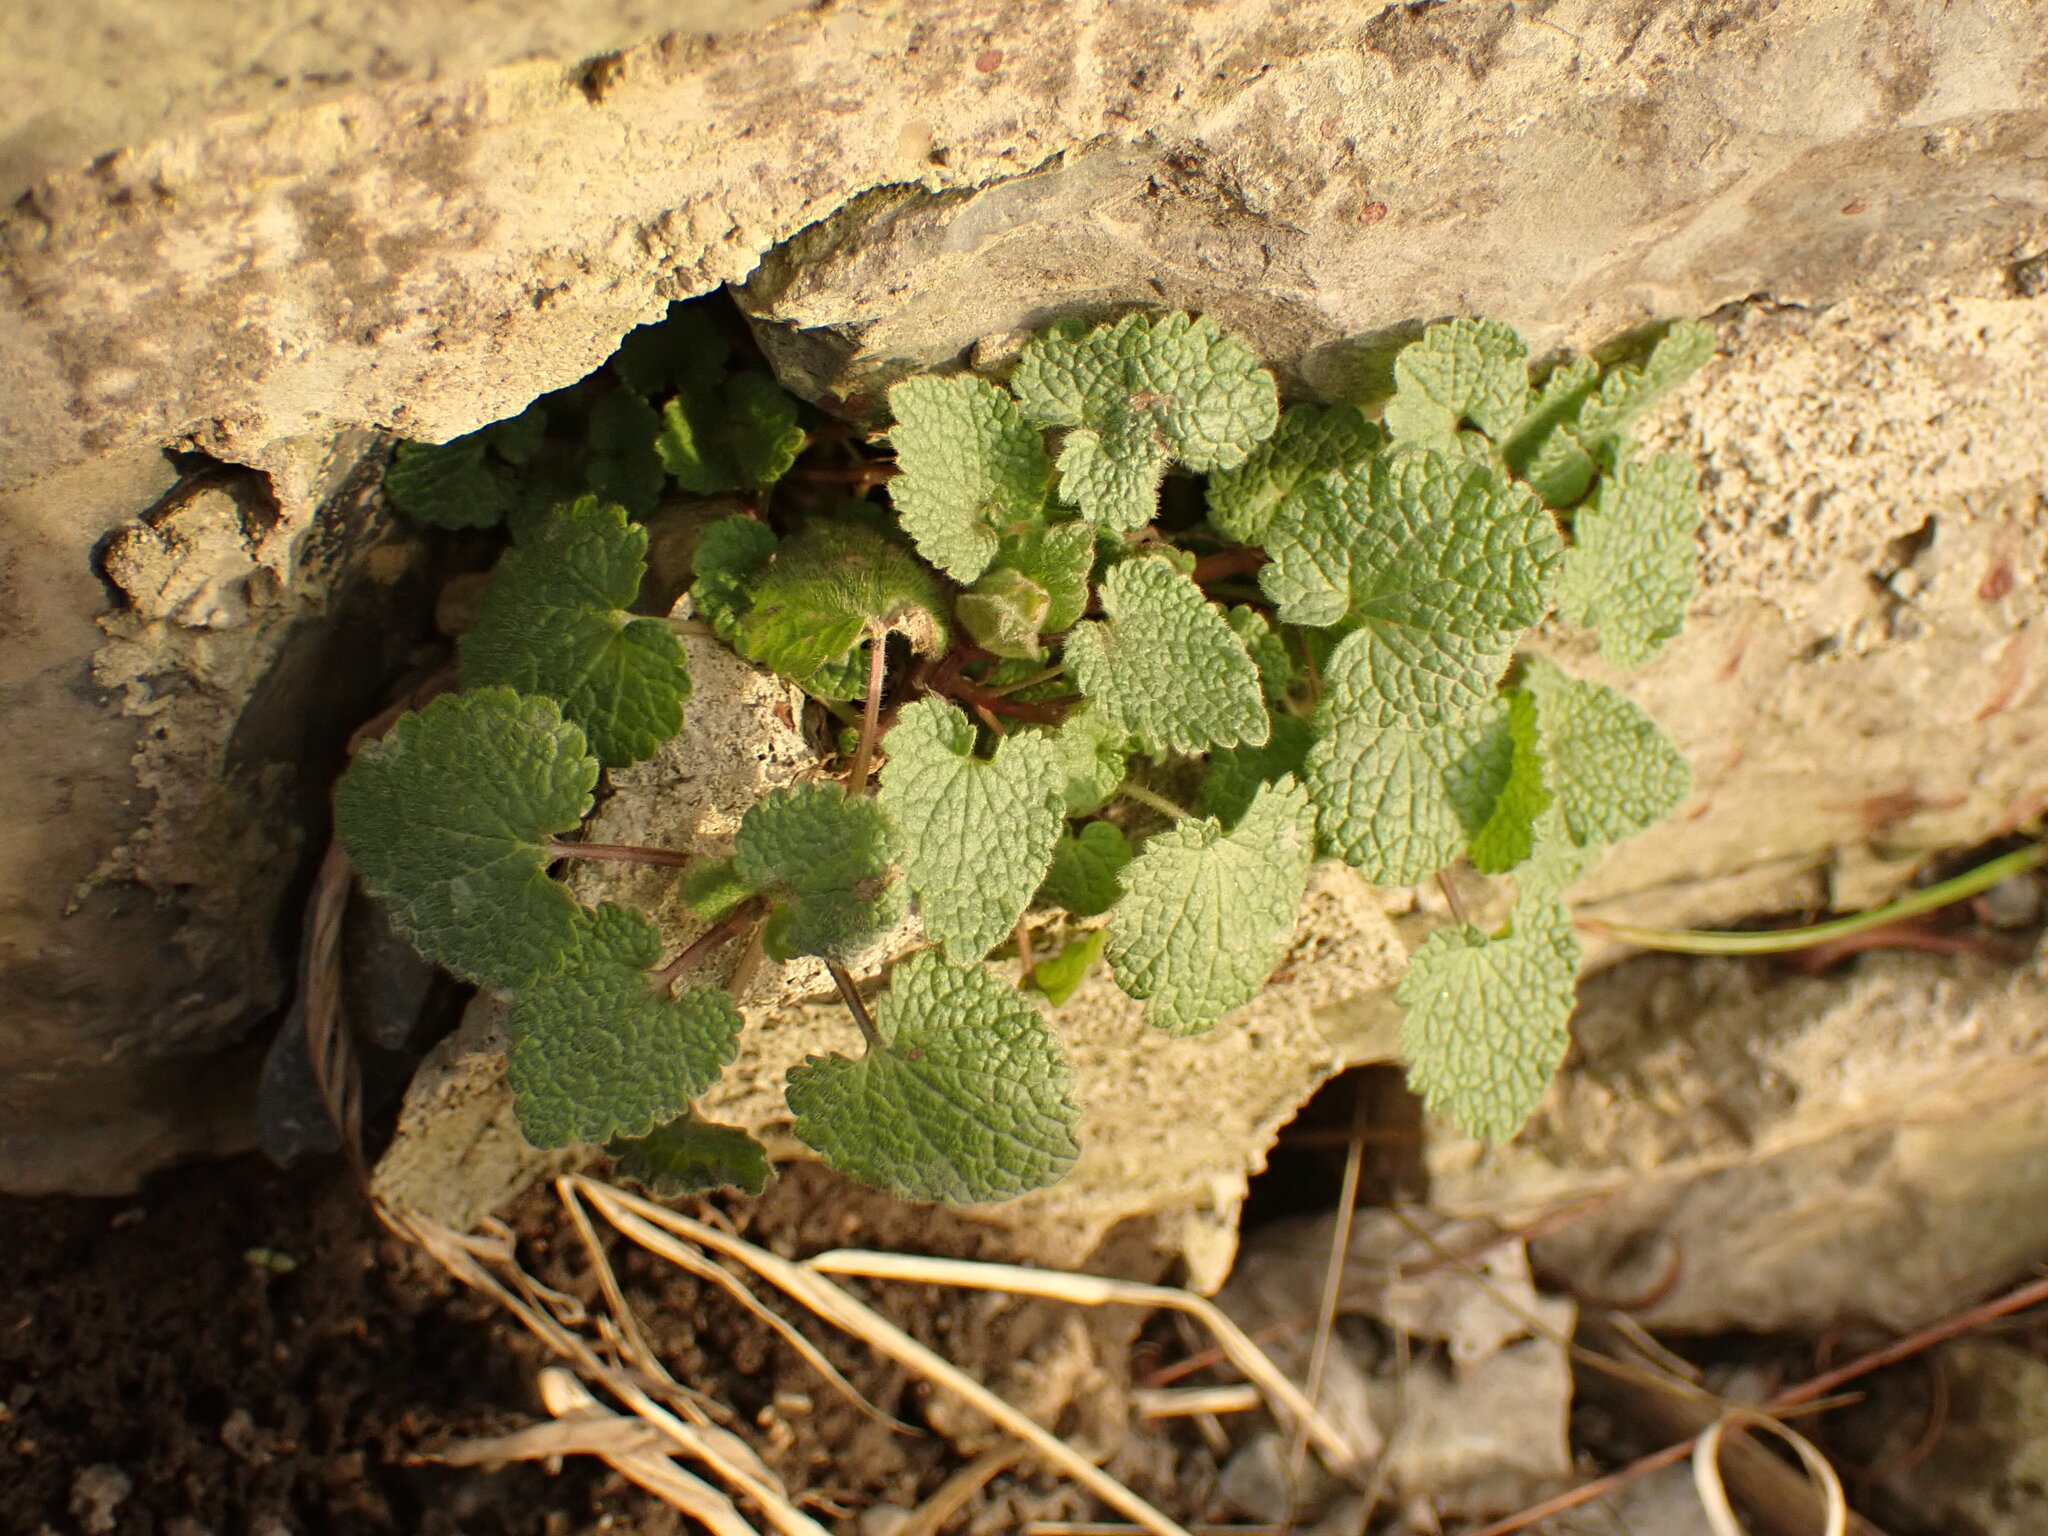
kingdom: Plantae
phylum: Tracheophyta
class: Magnoliopsida
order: Lamiales
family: Lamiaceae
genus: Lamium
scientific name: Lamium purpureum
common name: Red dead-nettle
